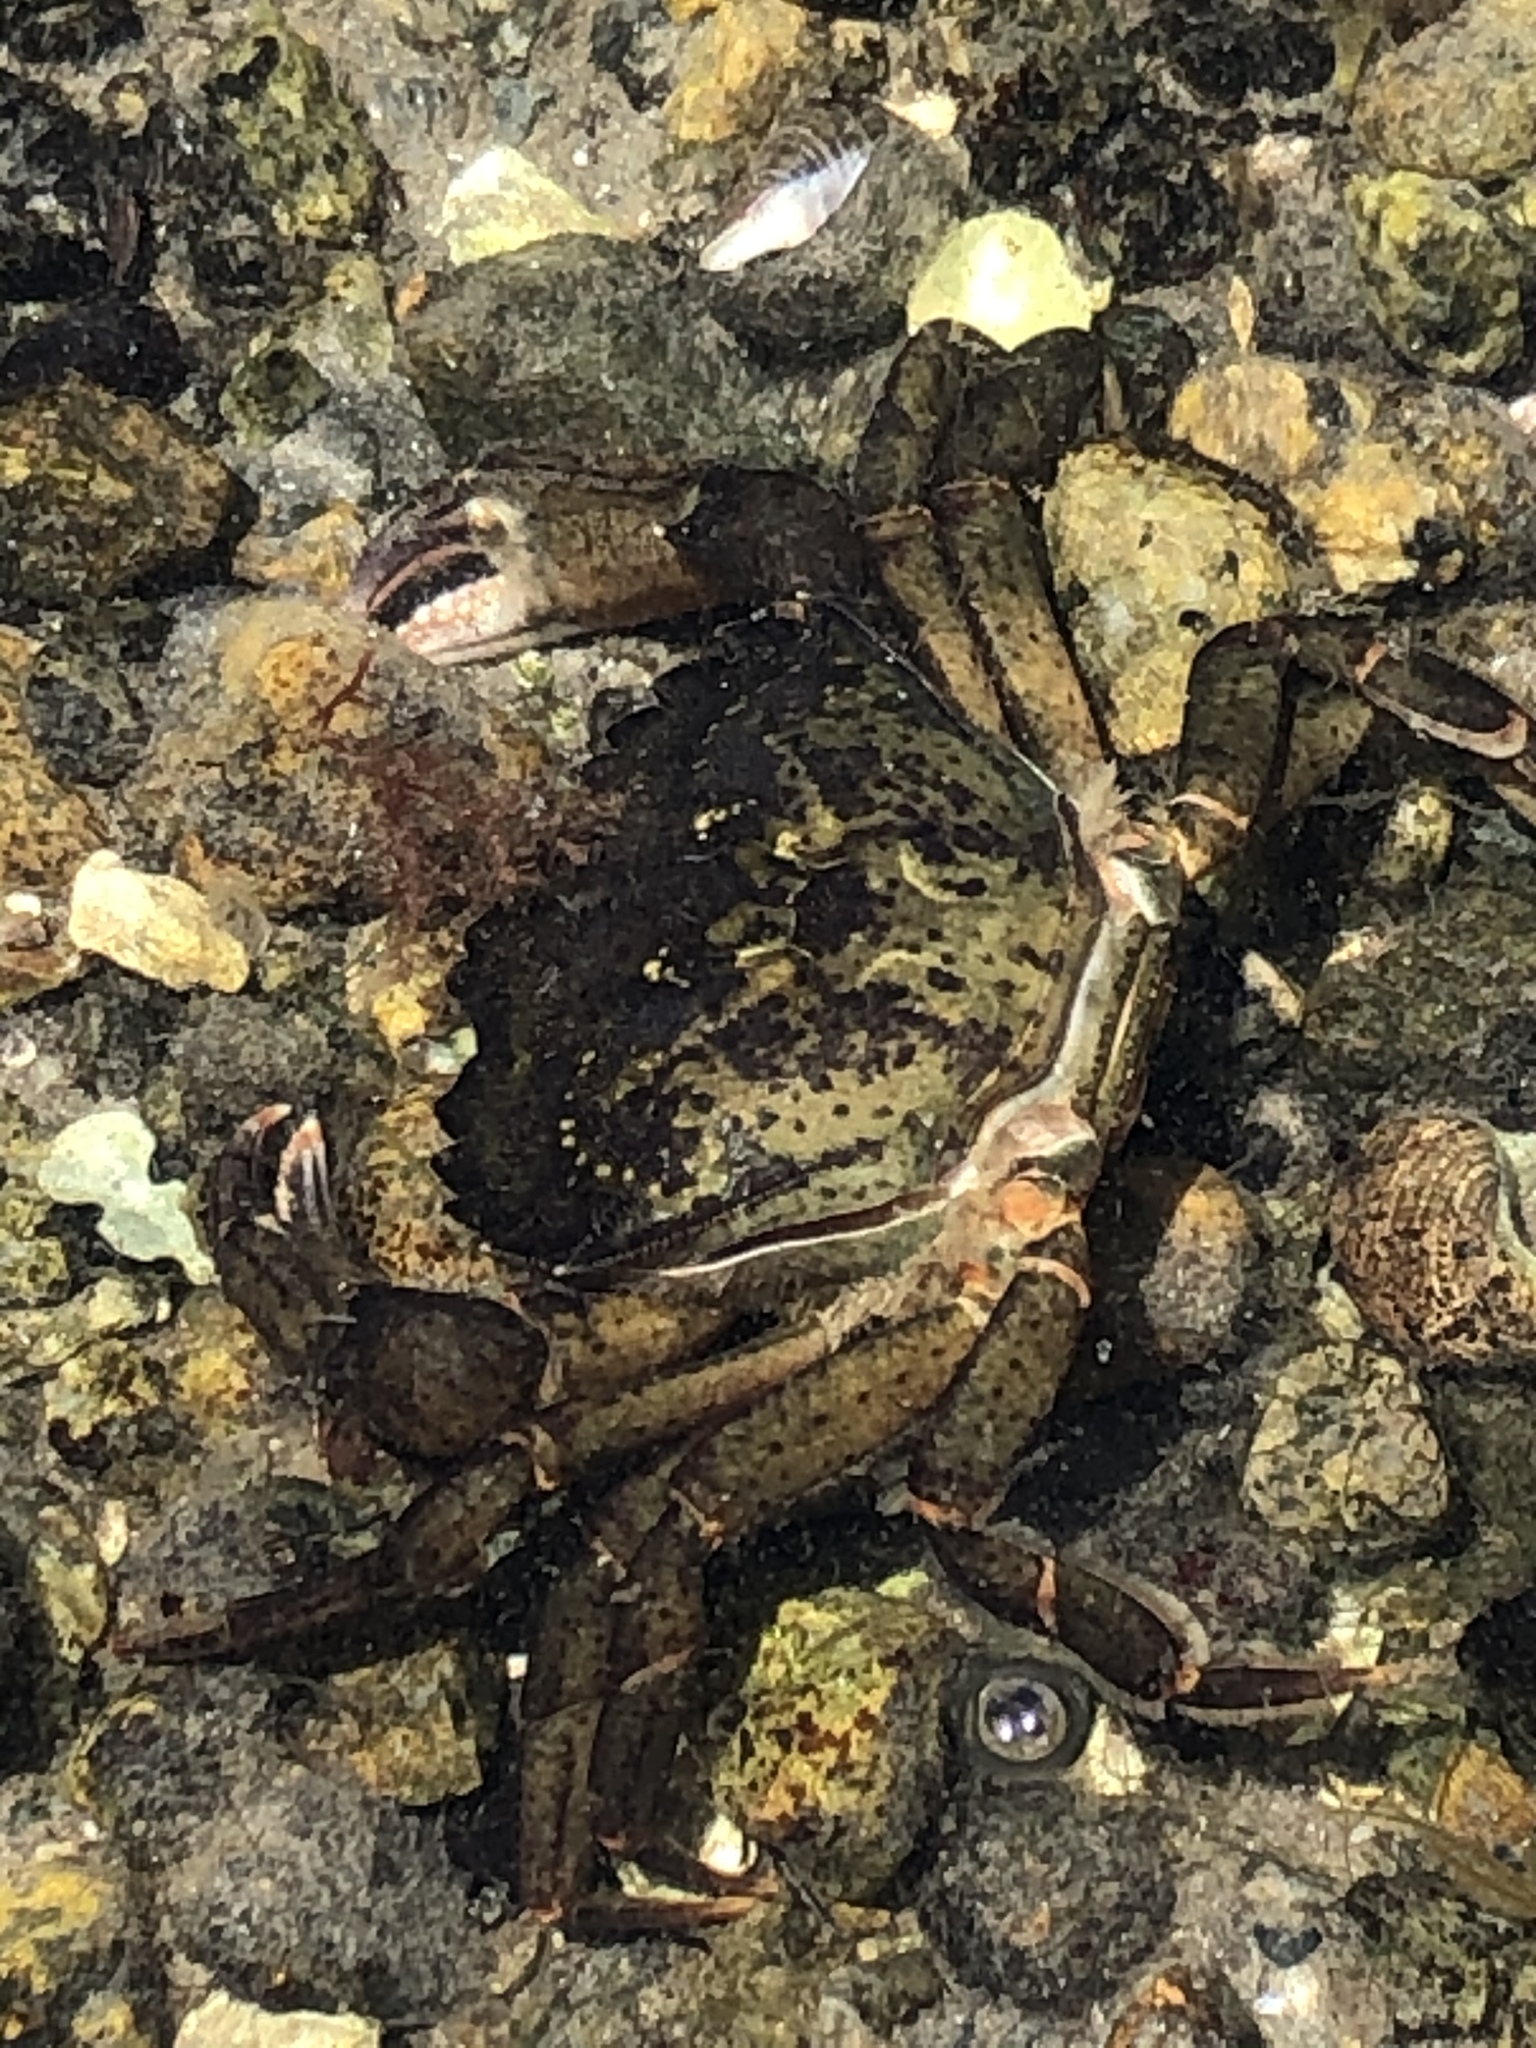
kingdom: Animalia
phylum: Arthropoda
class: Malacostraca
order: Decapoda
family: Carcinidae
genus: Carcinus
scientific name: Carcinus maenas
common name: European green crab
